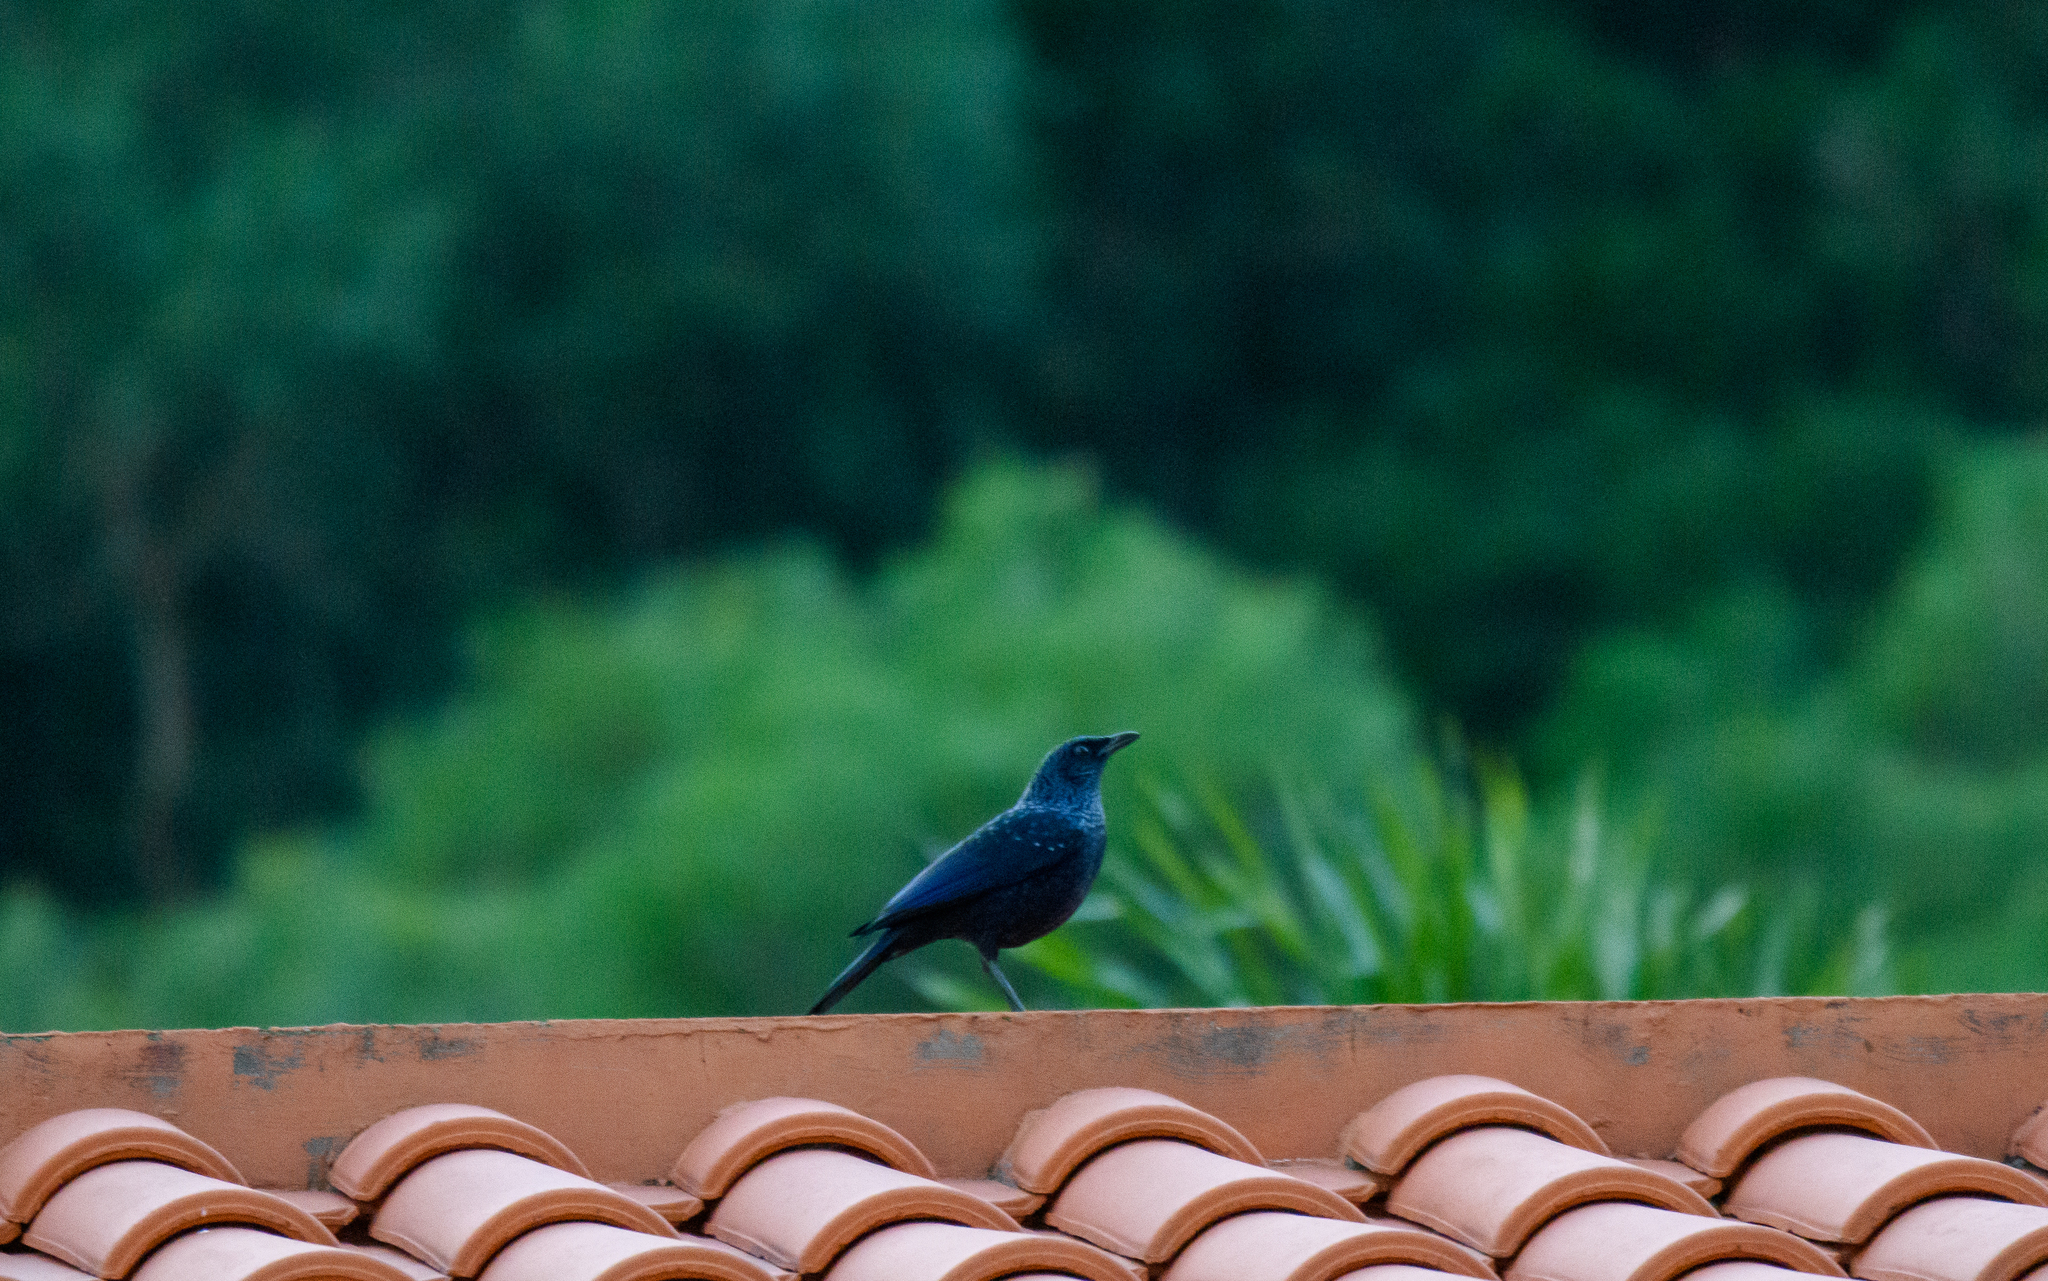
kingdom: Animalia
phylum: Chordata
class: Aves
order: Passeriformes
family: Muscicapidae
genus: Myophonus
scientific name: Myophonus caeruleus
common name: Blue whistling-thrush
